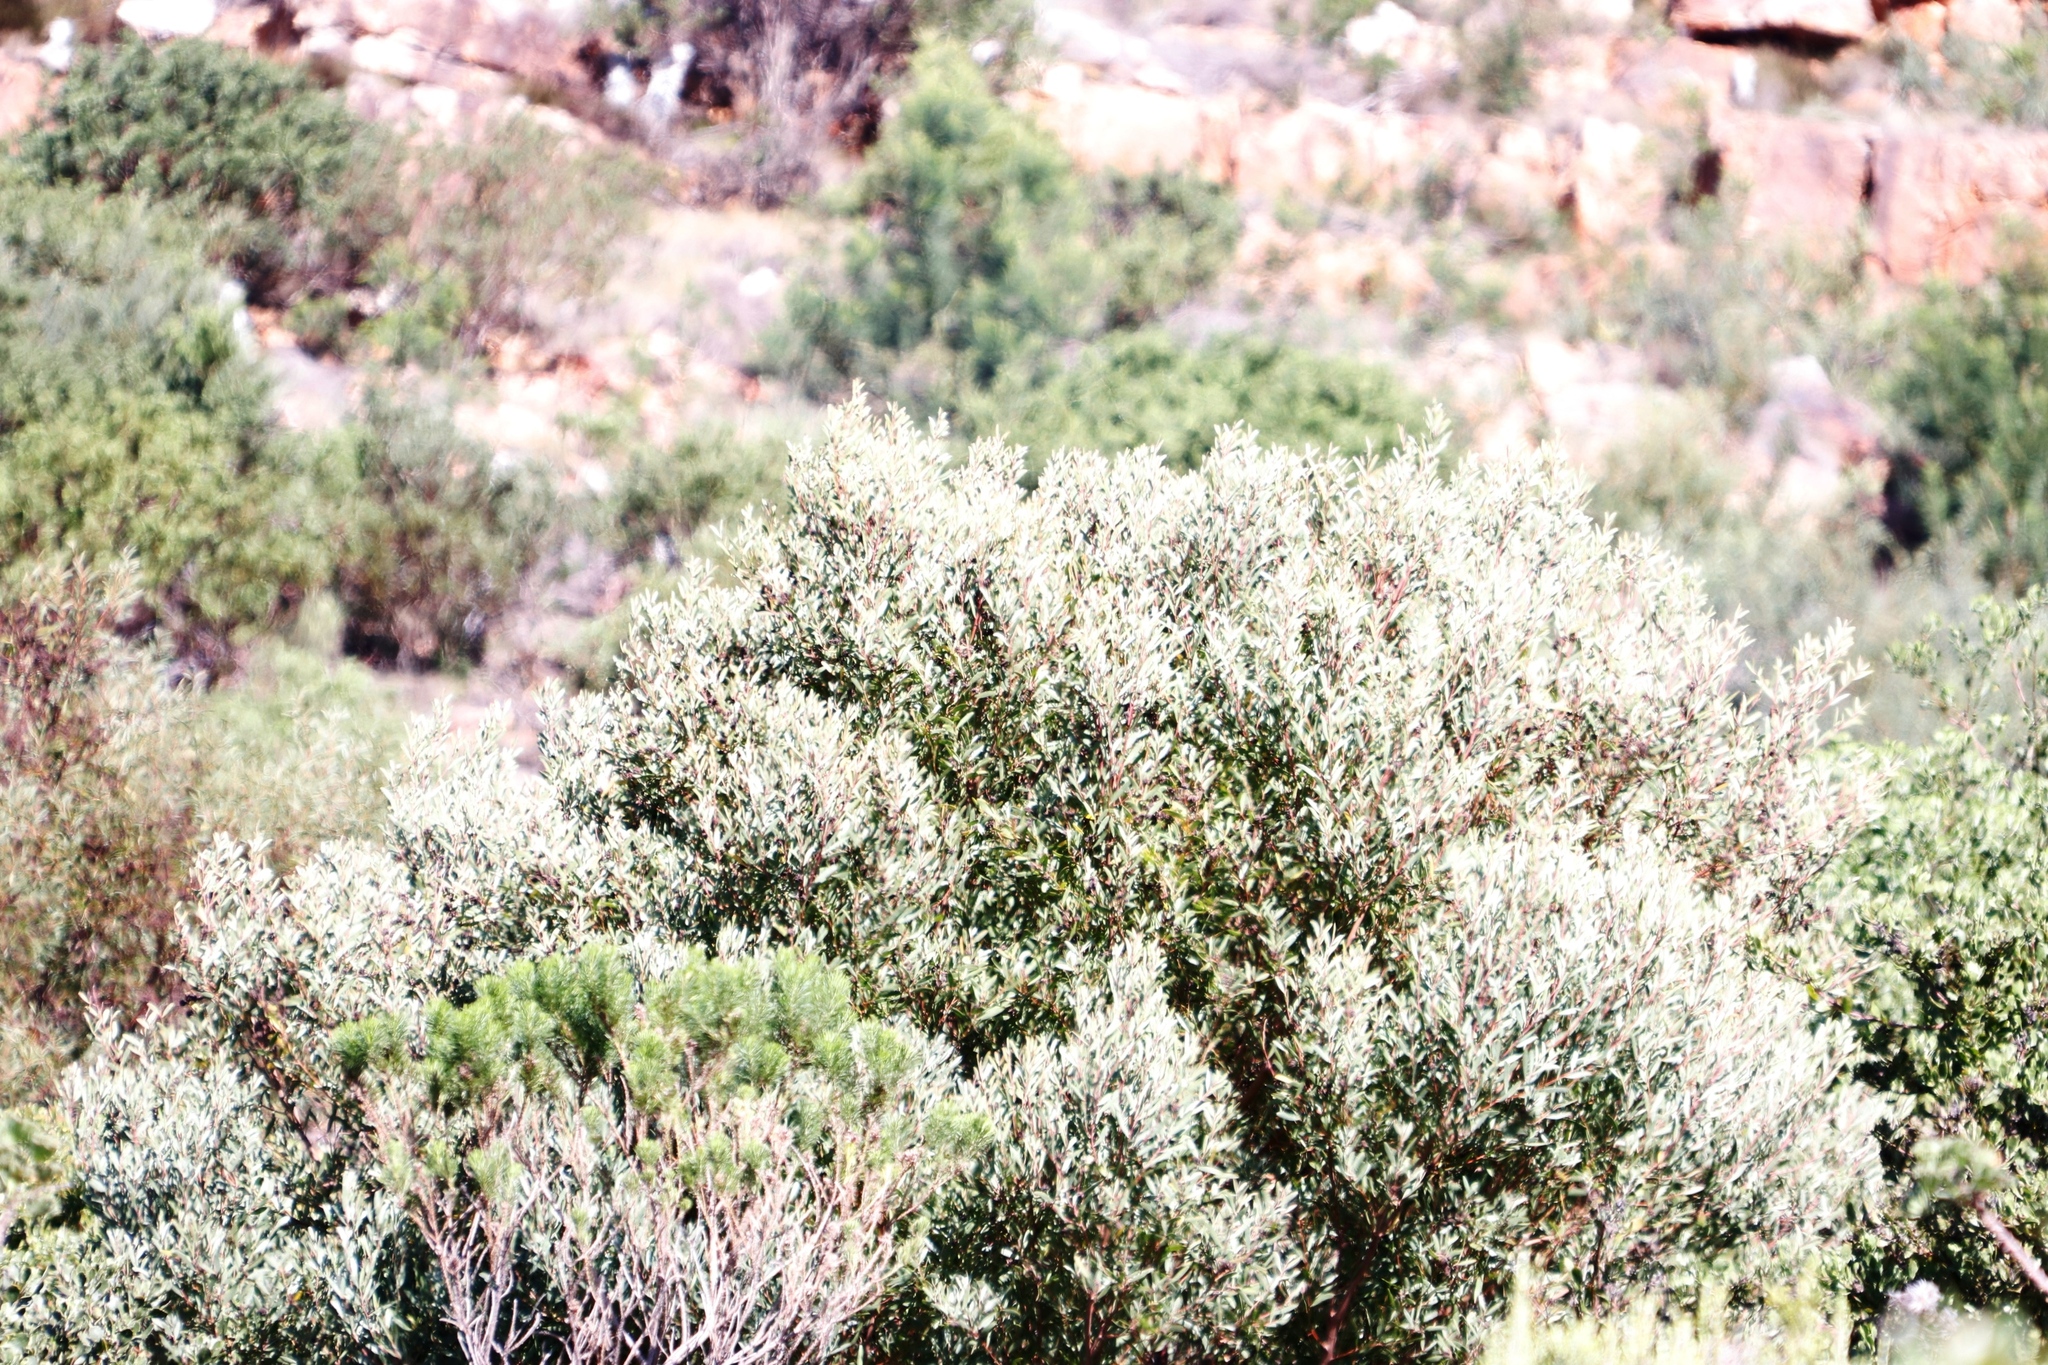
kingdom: Plantae
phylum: Tracheophyta
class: Magnoliopsida
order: Fabales
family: Fabaceae
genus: Acacia
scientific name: Acacia longifolia
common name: Sydney golden wattle
